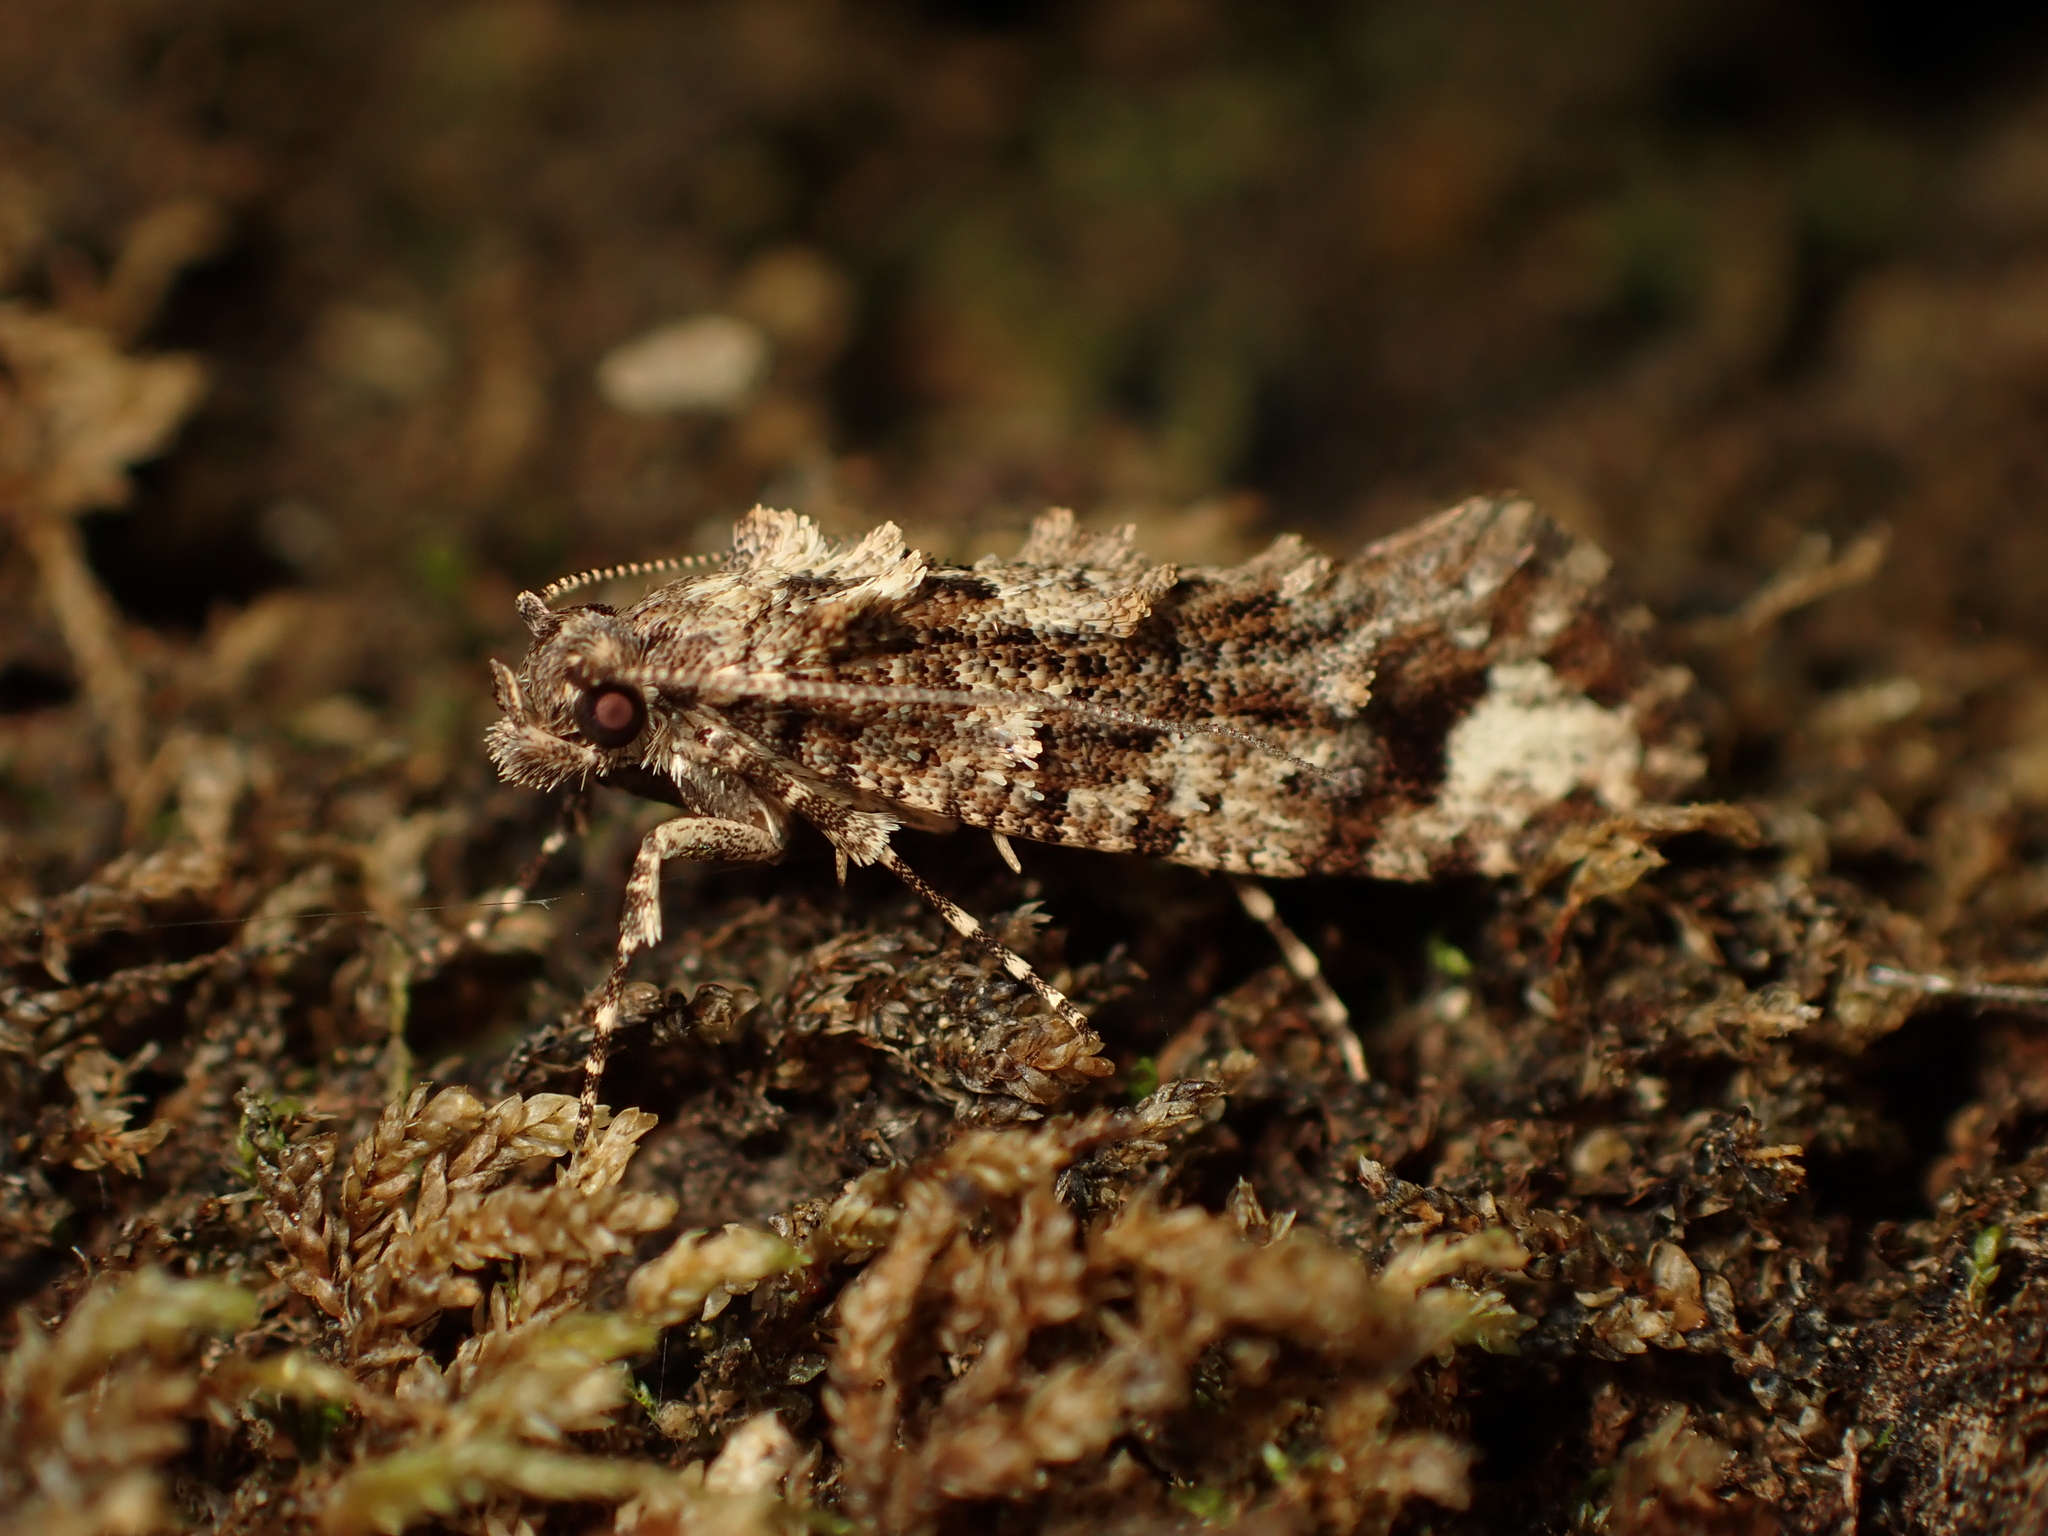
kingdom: Animalia
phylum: Arthropoda
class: Insecta
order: Lepidoptera
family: Tineidae
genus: Lysiphragma
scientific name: Lysiphragma epixyla
